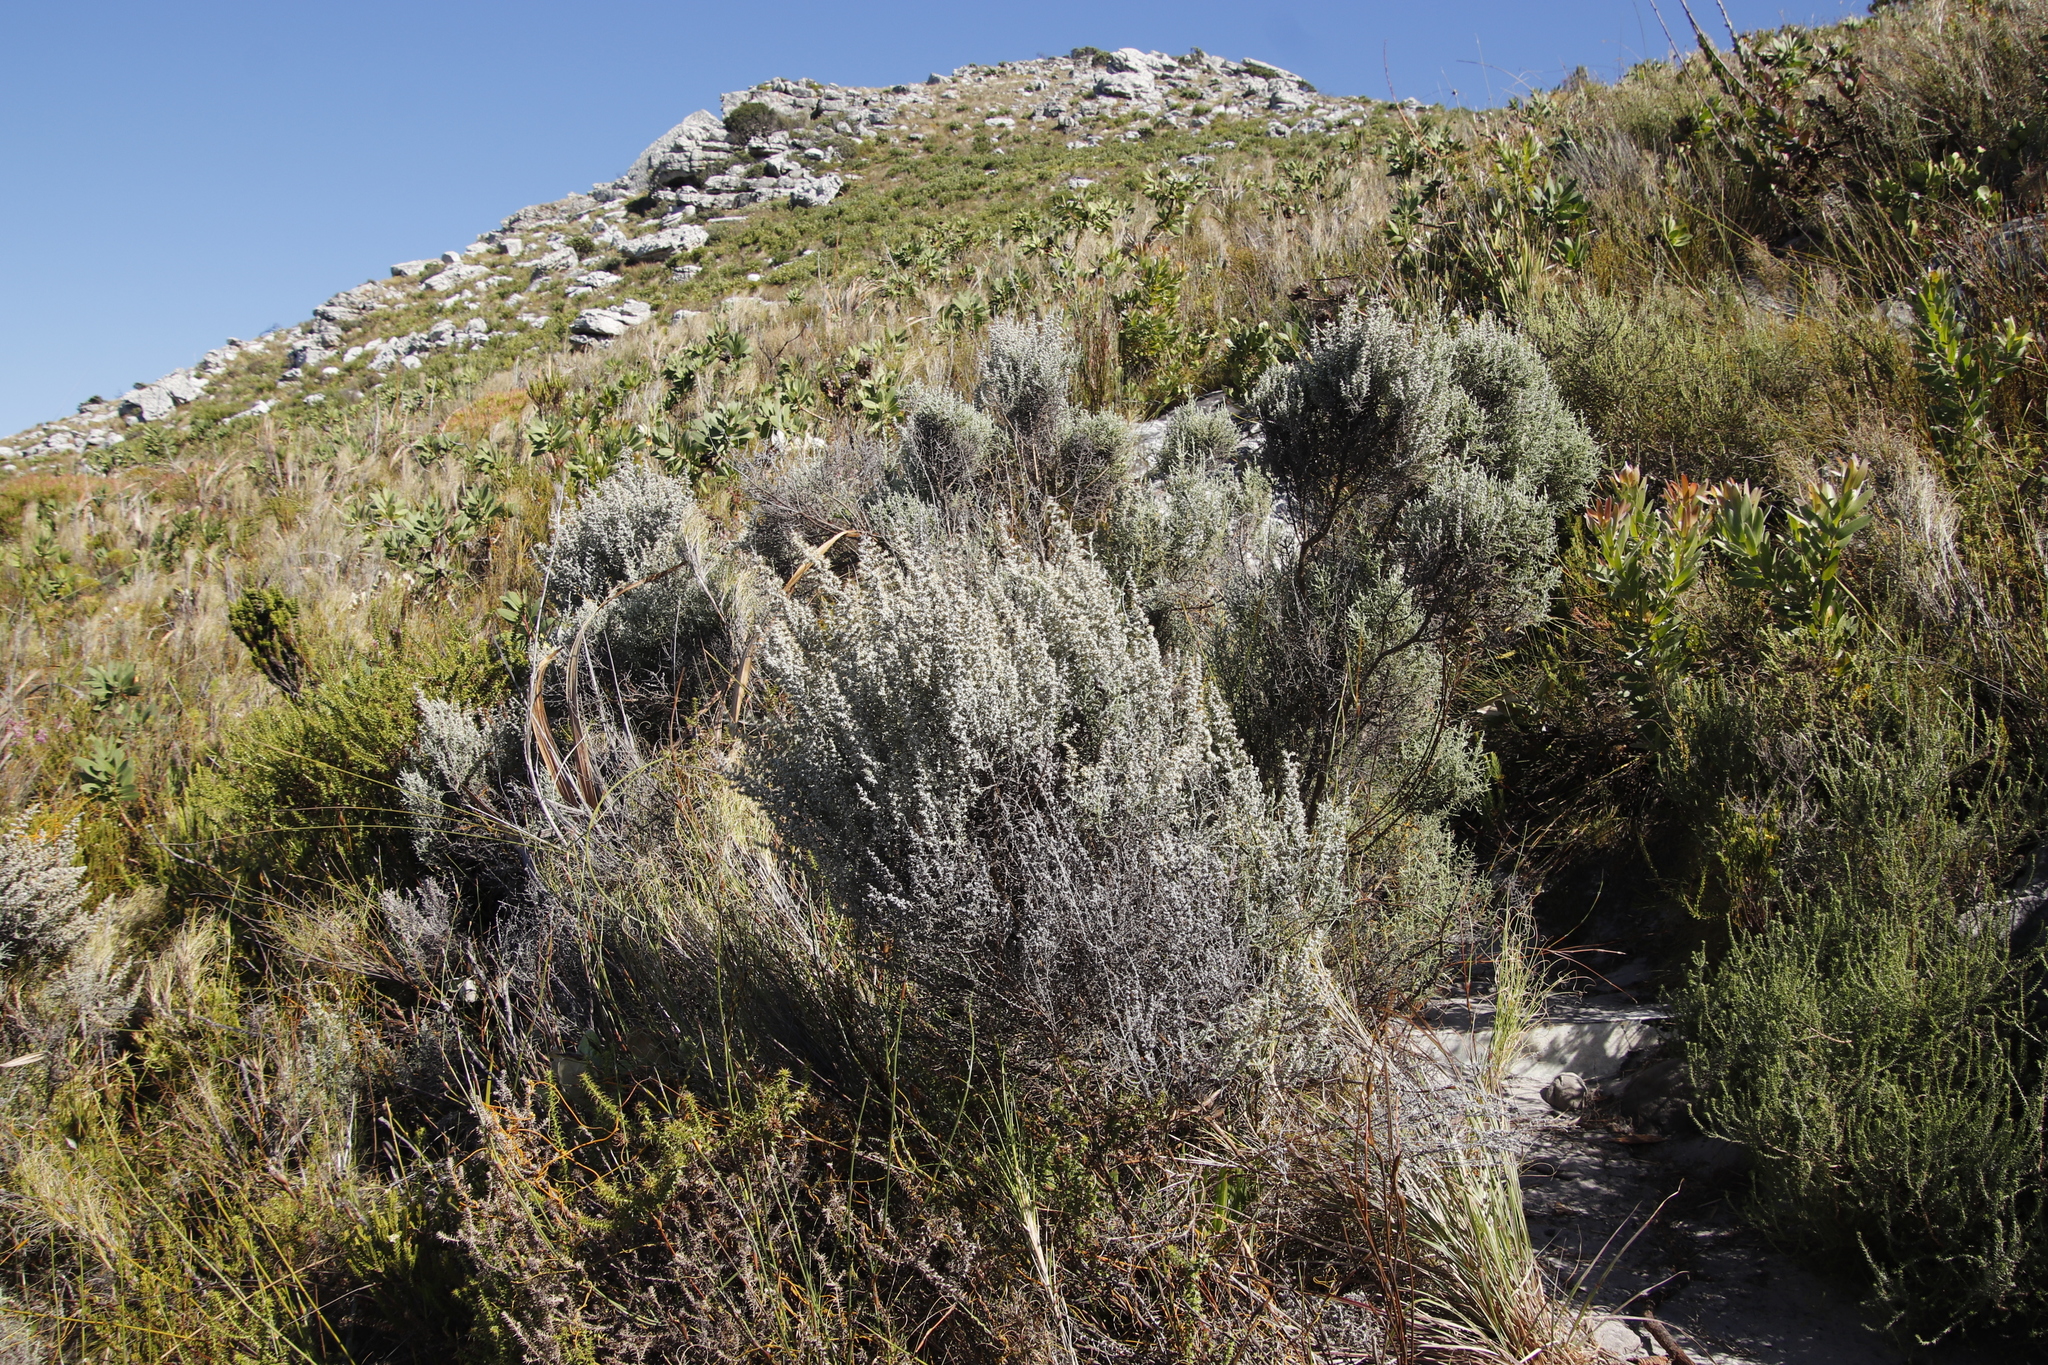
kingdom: Plantae
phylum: Tracheophyta
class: Magnoliopsida
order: Asterales
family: Asteraceae
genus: Seriphium
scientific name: Seriphium plumosum
